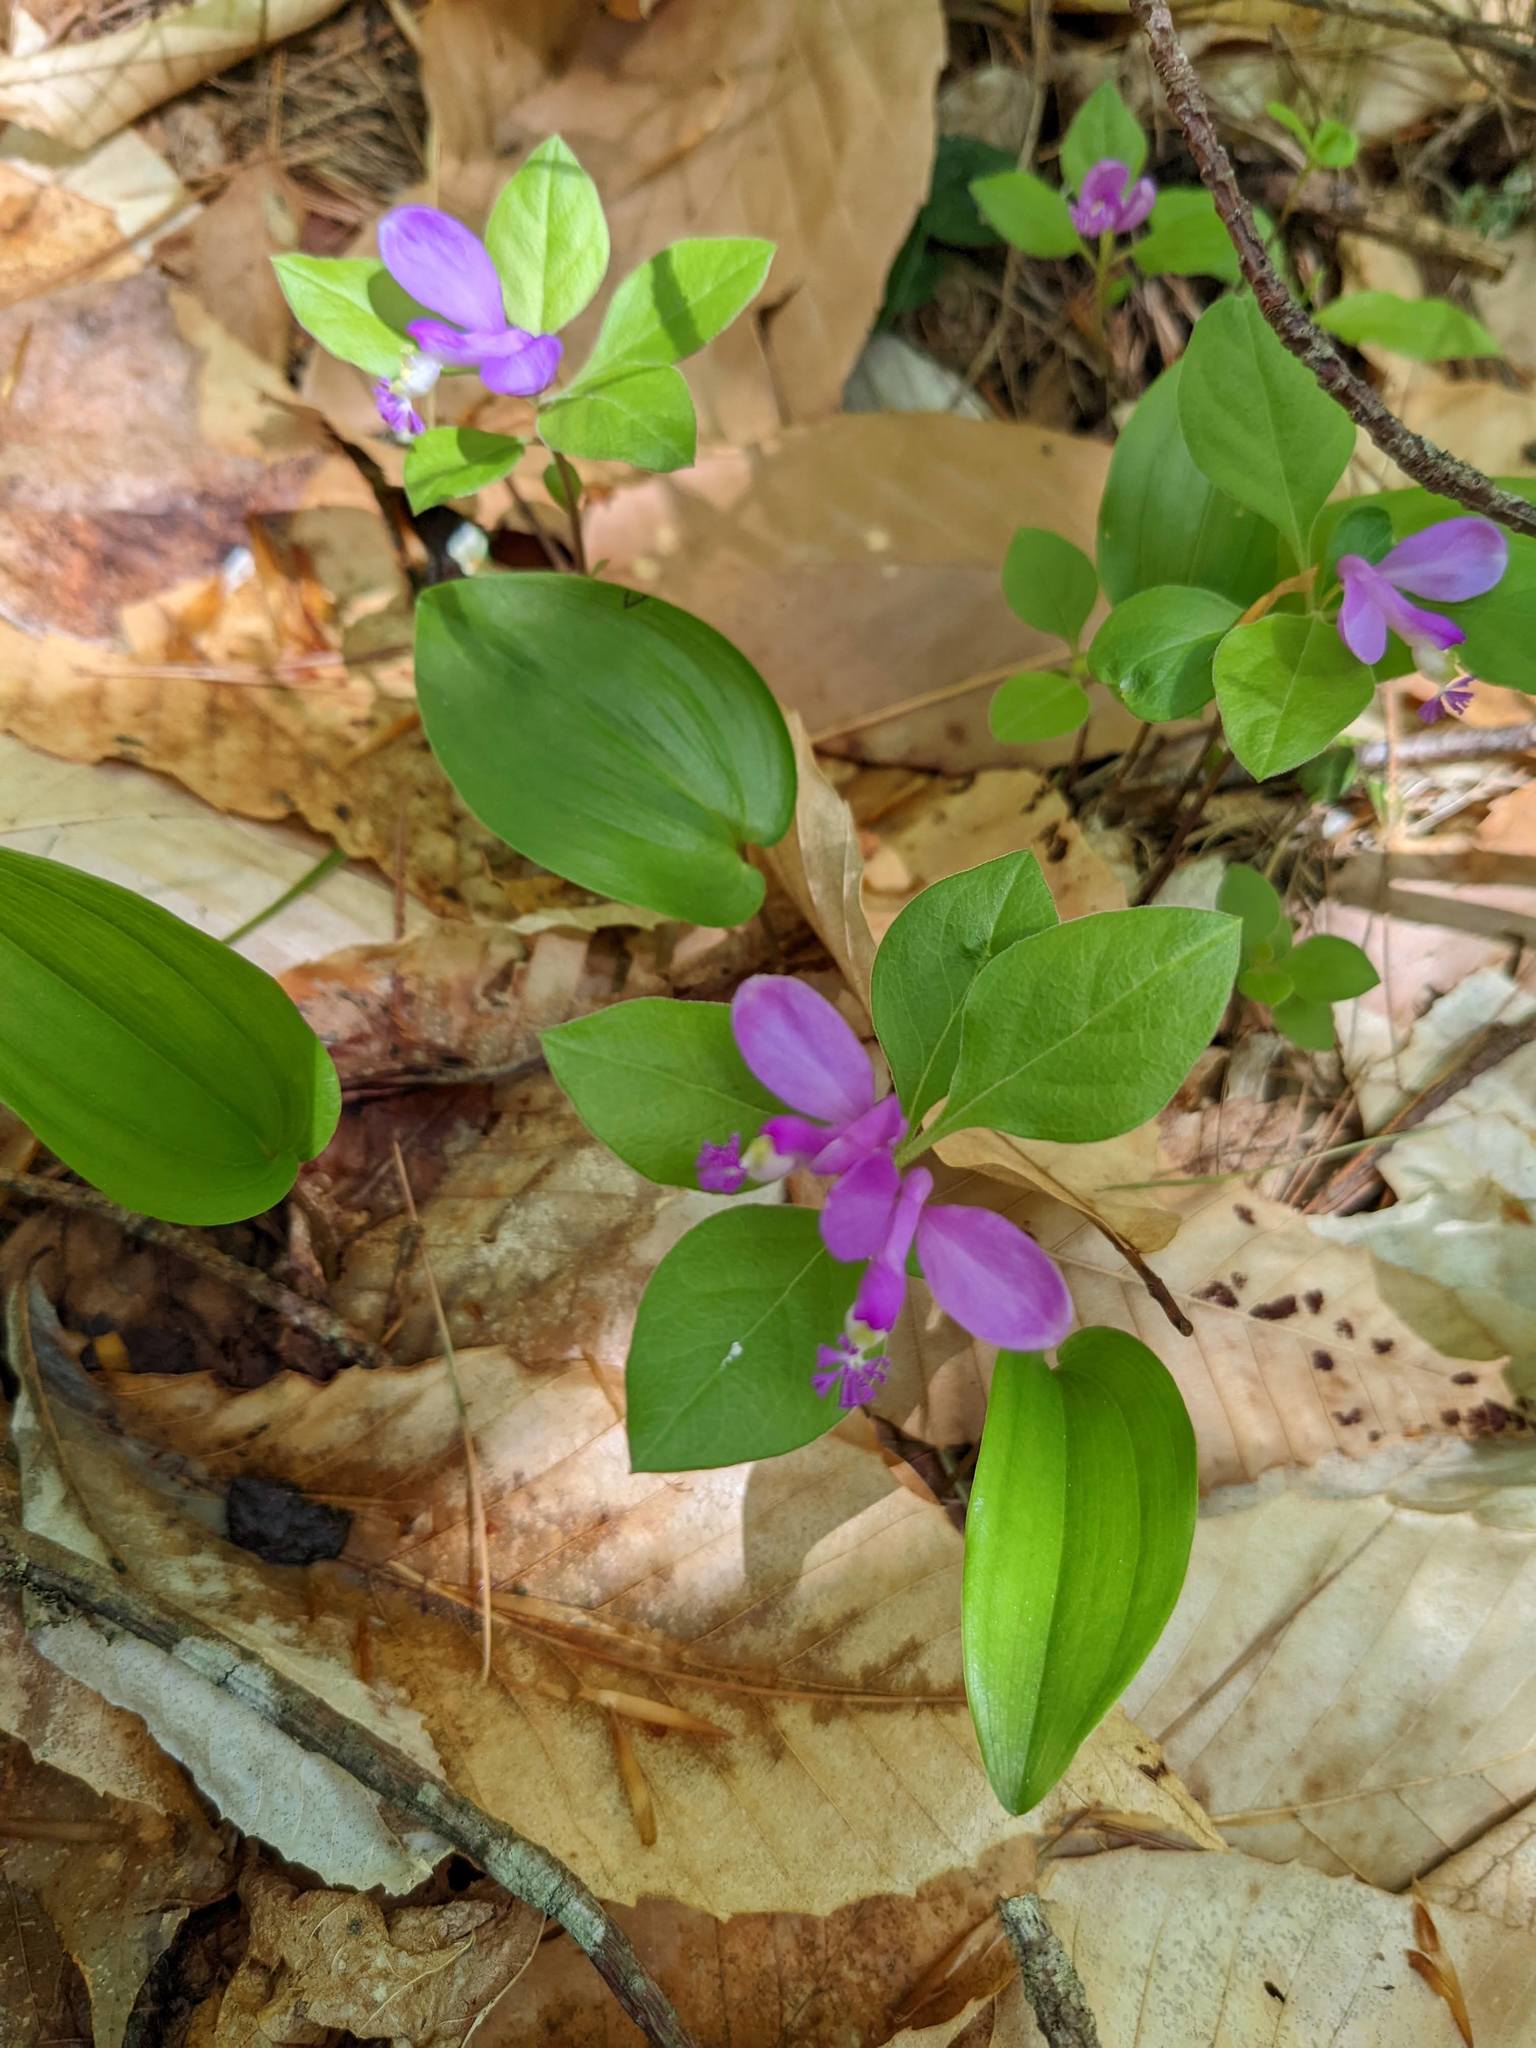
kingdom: Plantae
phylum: Tracheophyta
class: Magnoliopsida
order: Fabales
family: Polygalaceae
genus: Polygaloides
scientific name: Polygaloides paucifolia
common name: Bird-on-the-wing
